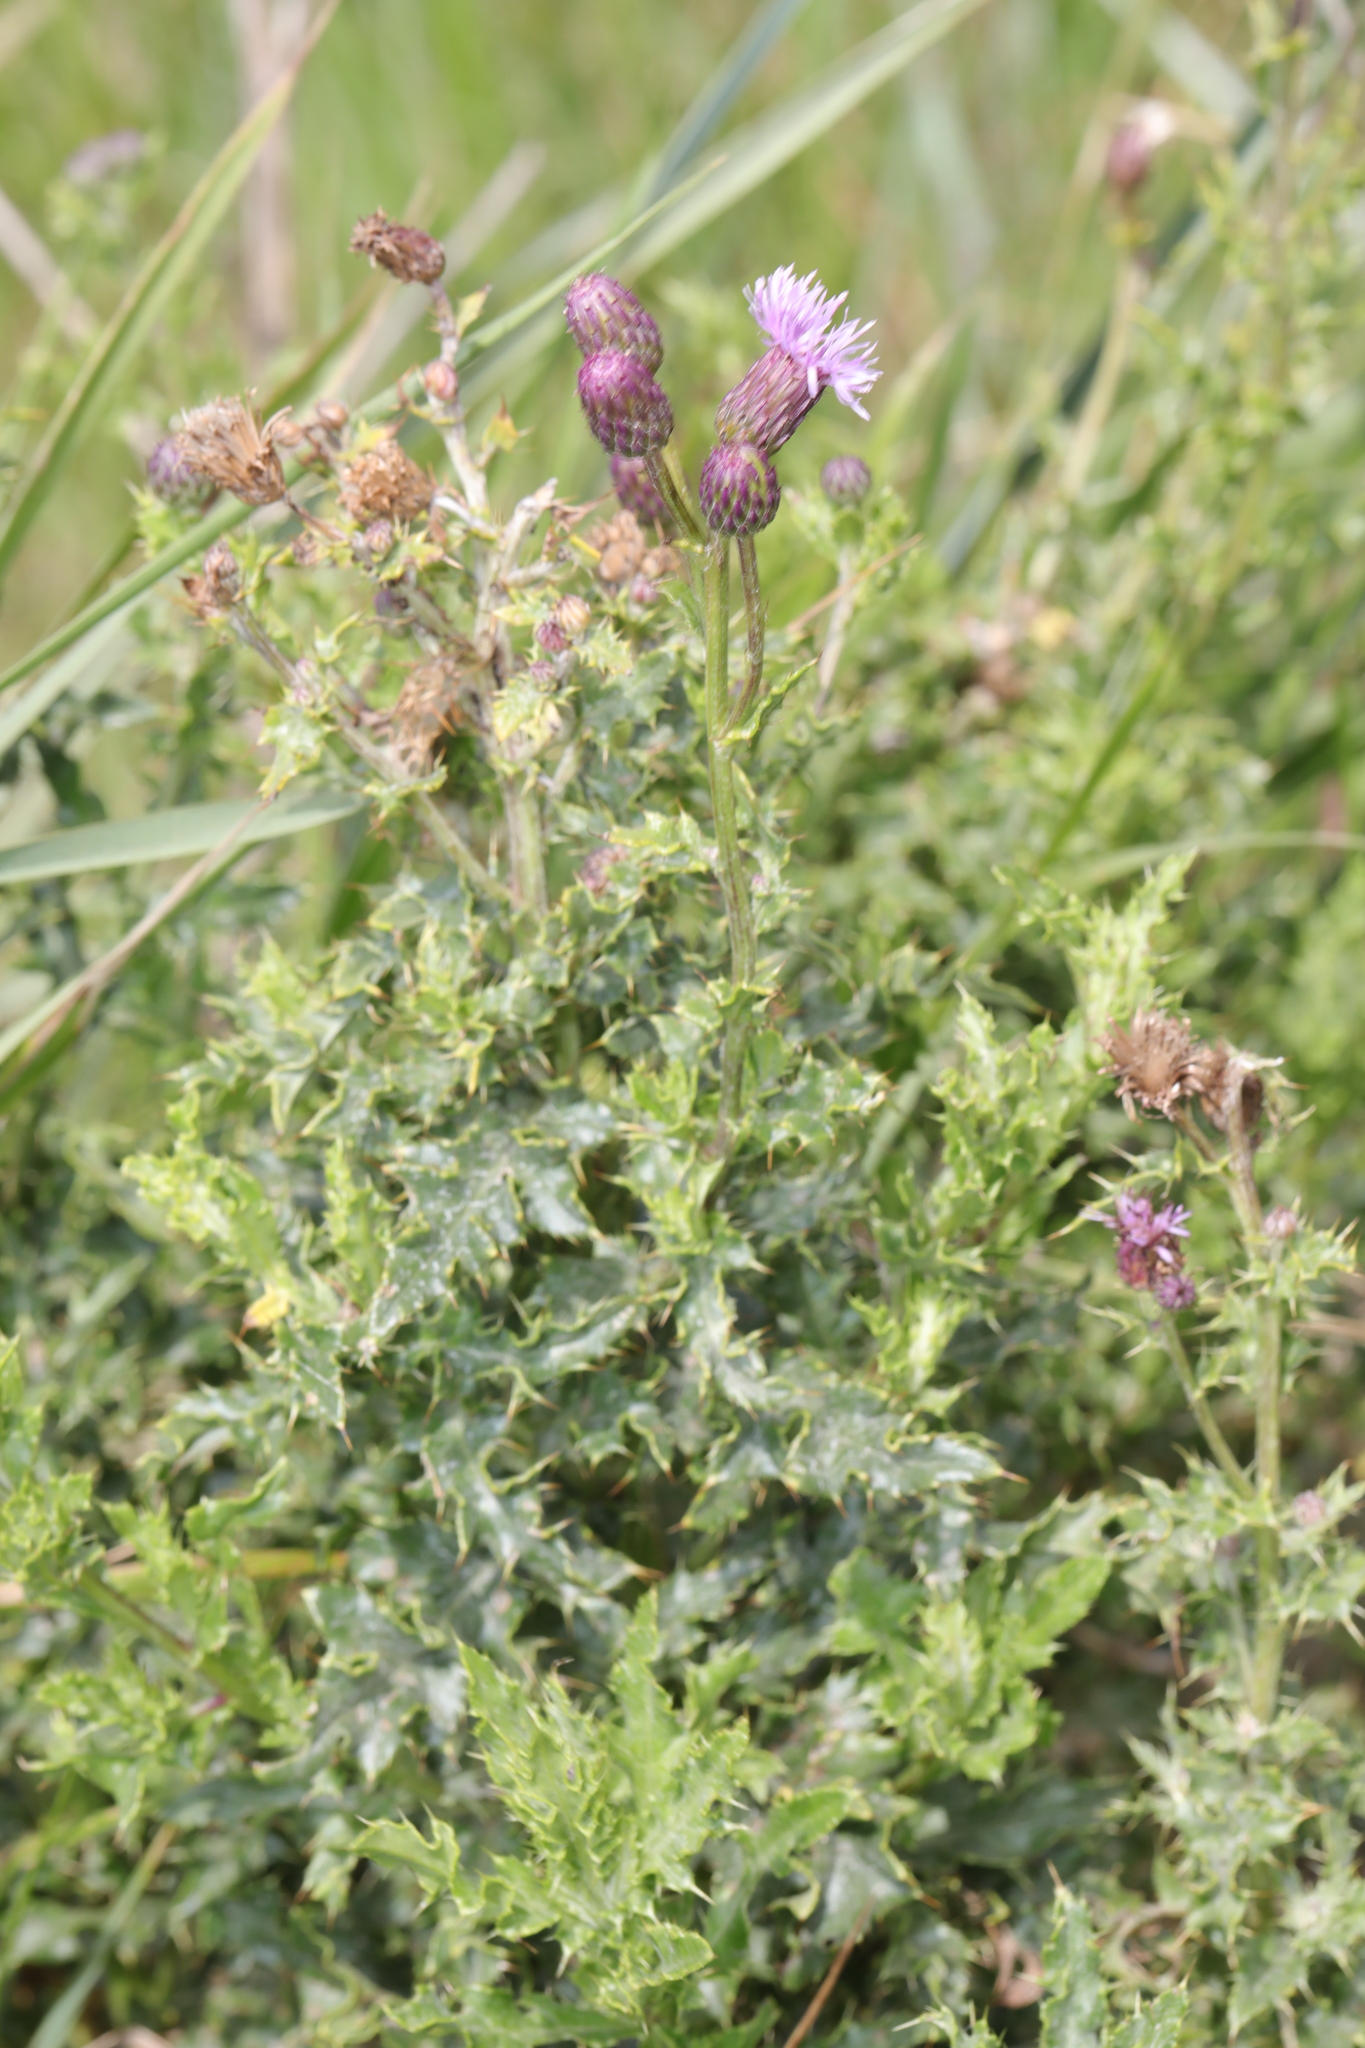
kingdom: Plantae
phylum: Tracheophyta
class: Magnoliopsida
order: Asterales
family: Asteraceae
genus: Cirsium
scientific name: Cirsium arvense
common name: Creeping thistle
